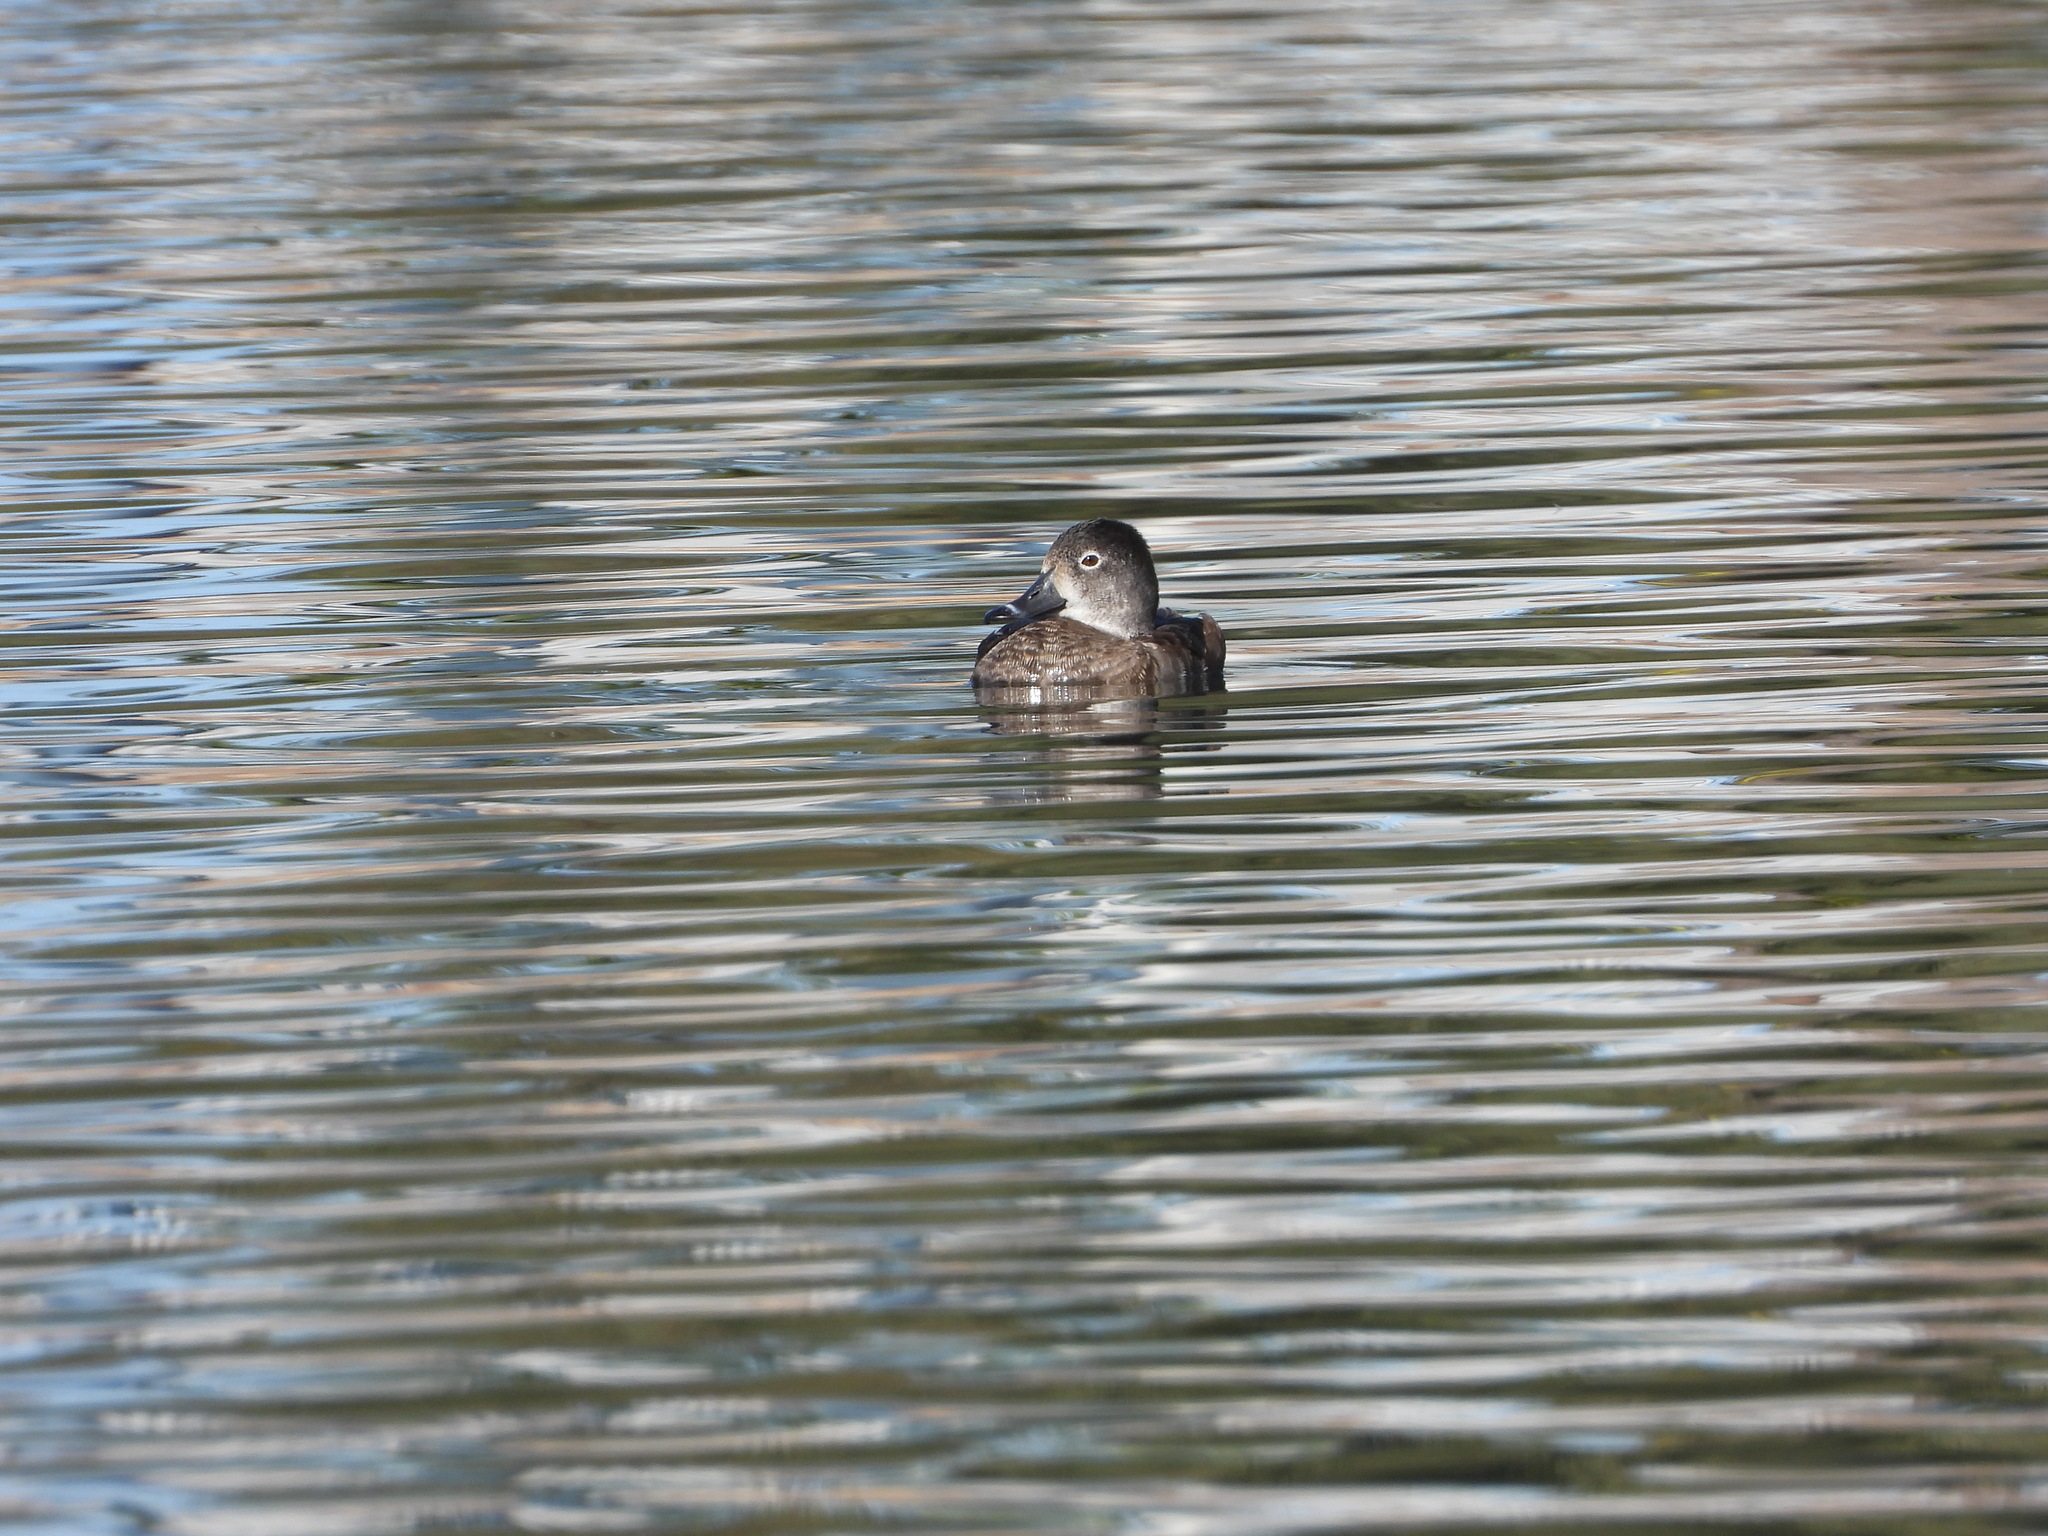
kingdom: Animalia
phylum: Chordata
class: Aves
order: Anseriformes
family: Anatidae
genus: Aythya
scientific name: Aythya collaris
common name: Ring-necked duck
